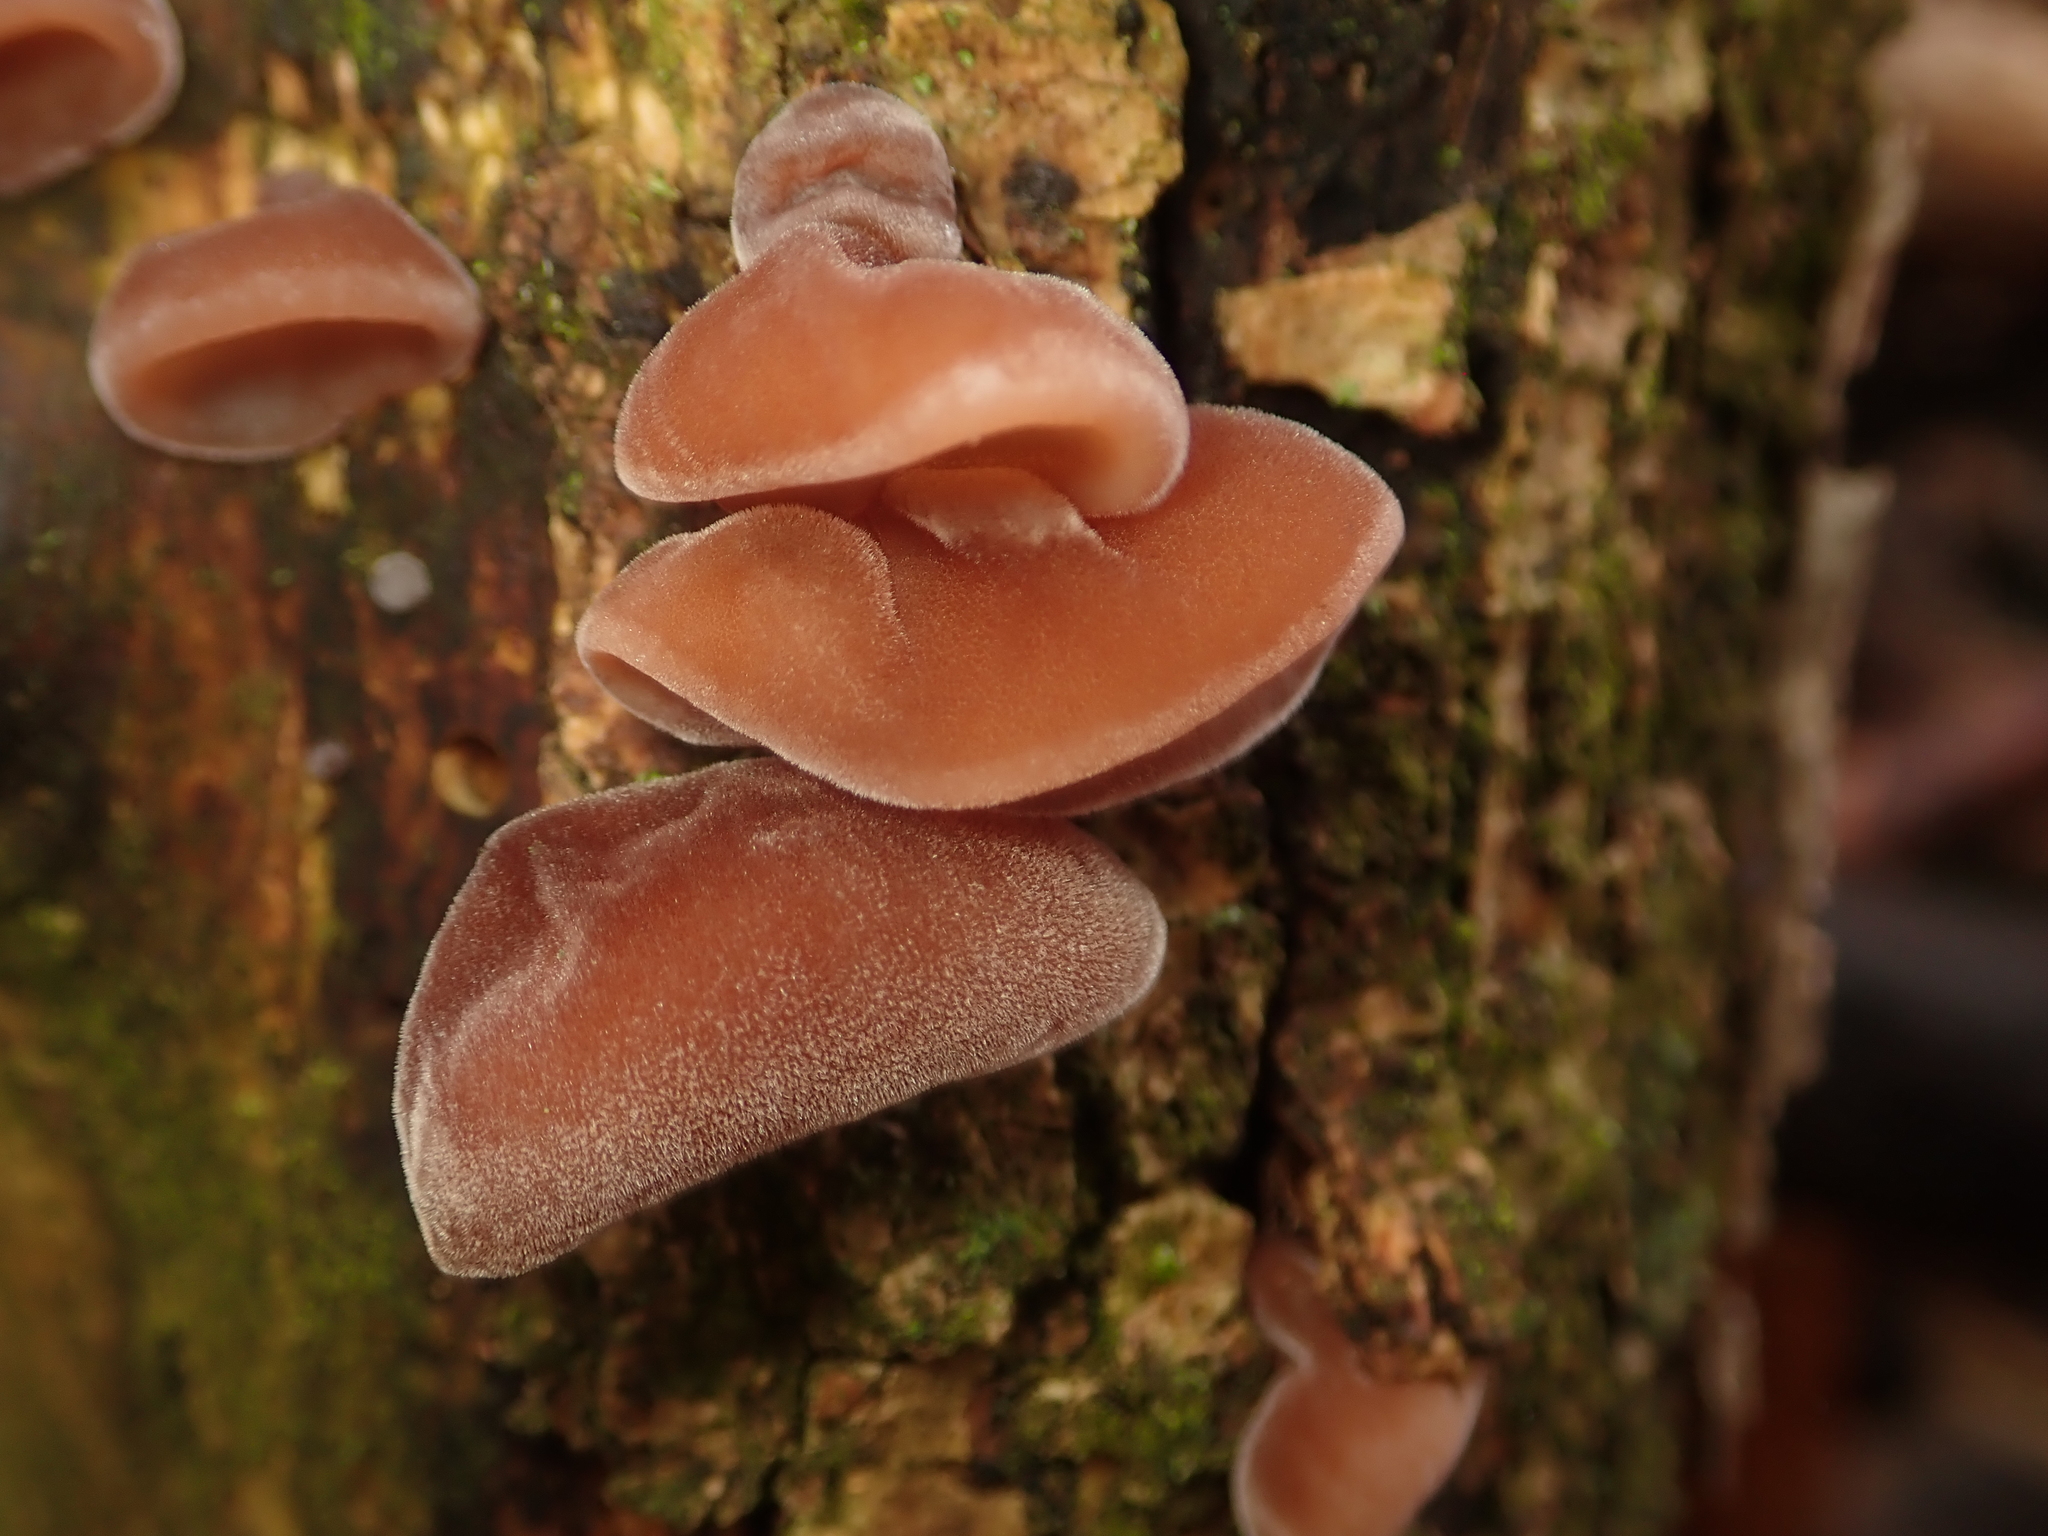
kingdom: Fungi
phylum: Basidiomycota
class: Agaricomycetes
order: Auriculariales
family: Auriculariaceae
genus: Auricularia
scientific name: Auricularia auricula-judae
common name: Jelly ear
